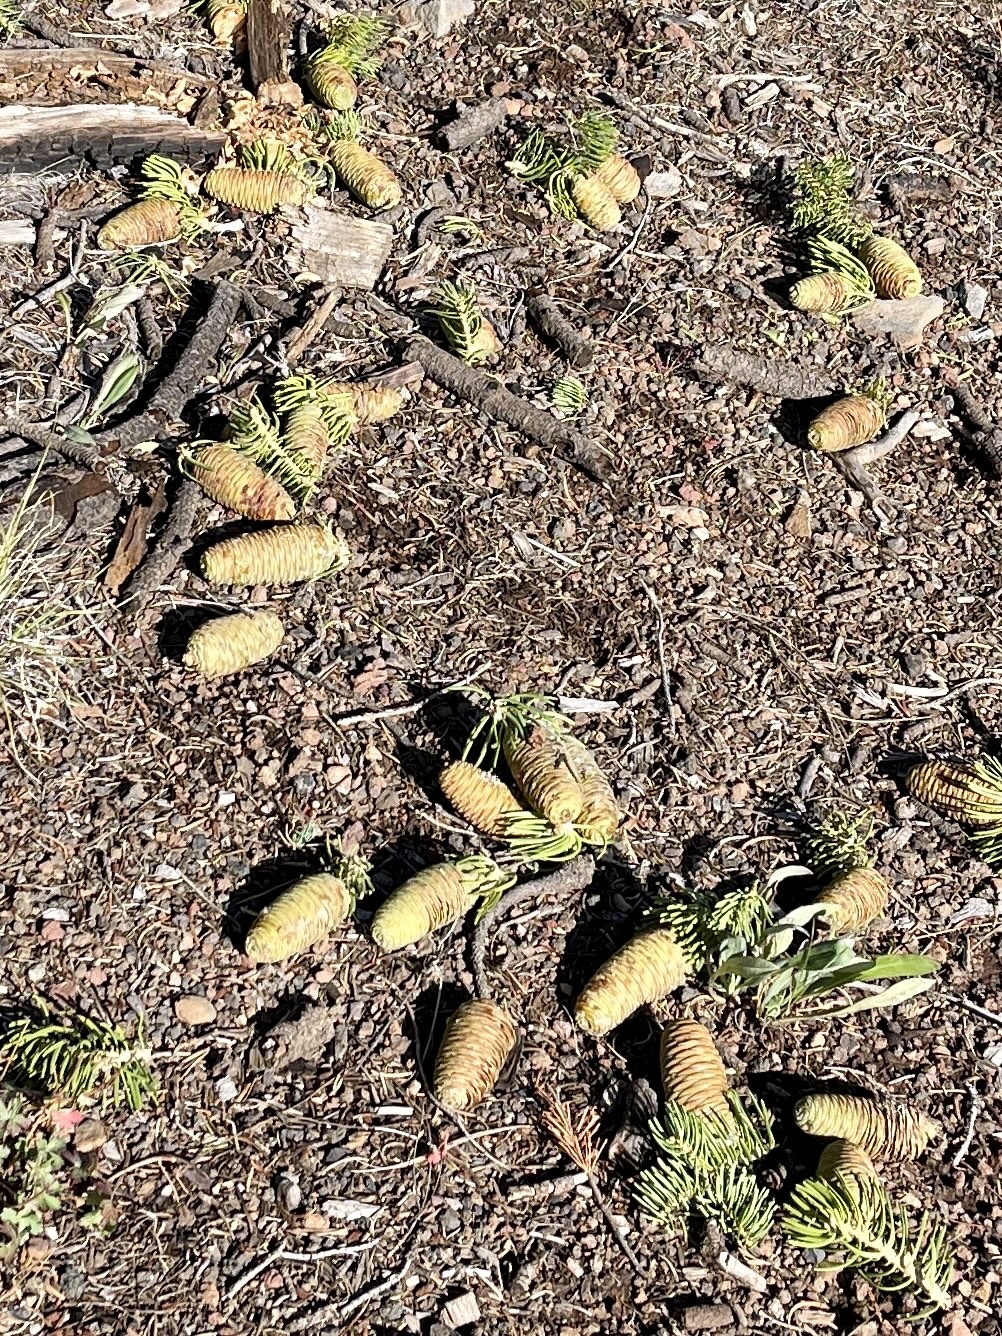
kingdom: Plantae
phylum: Tracheophyta
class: Pinopsida
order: Pinales
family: Pinaceae
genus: Abies
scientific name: Abies concolor
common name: Colorado fir
